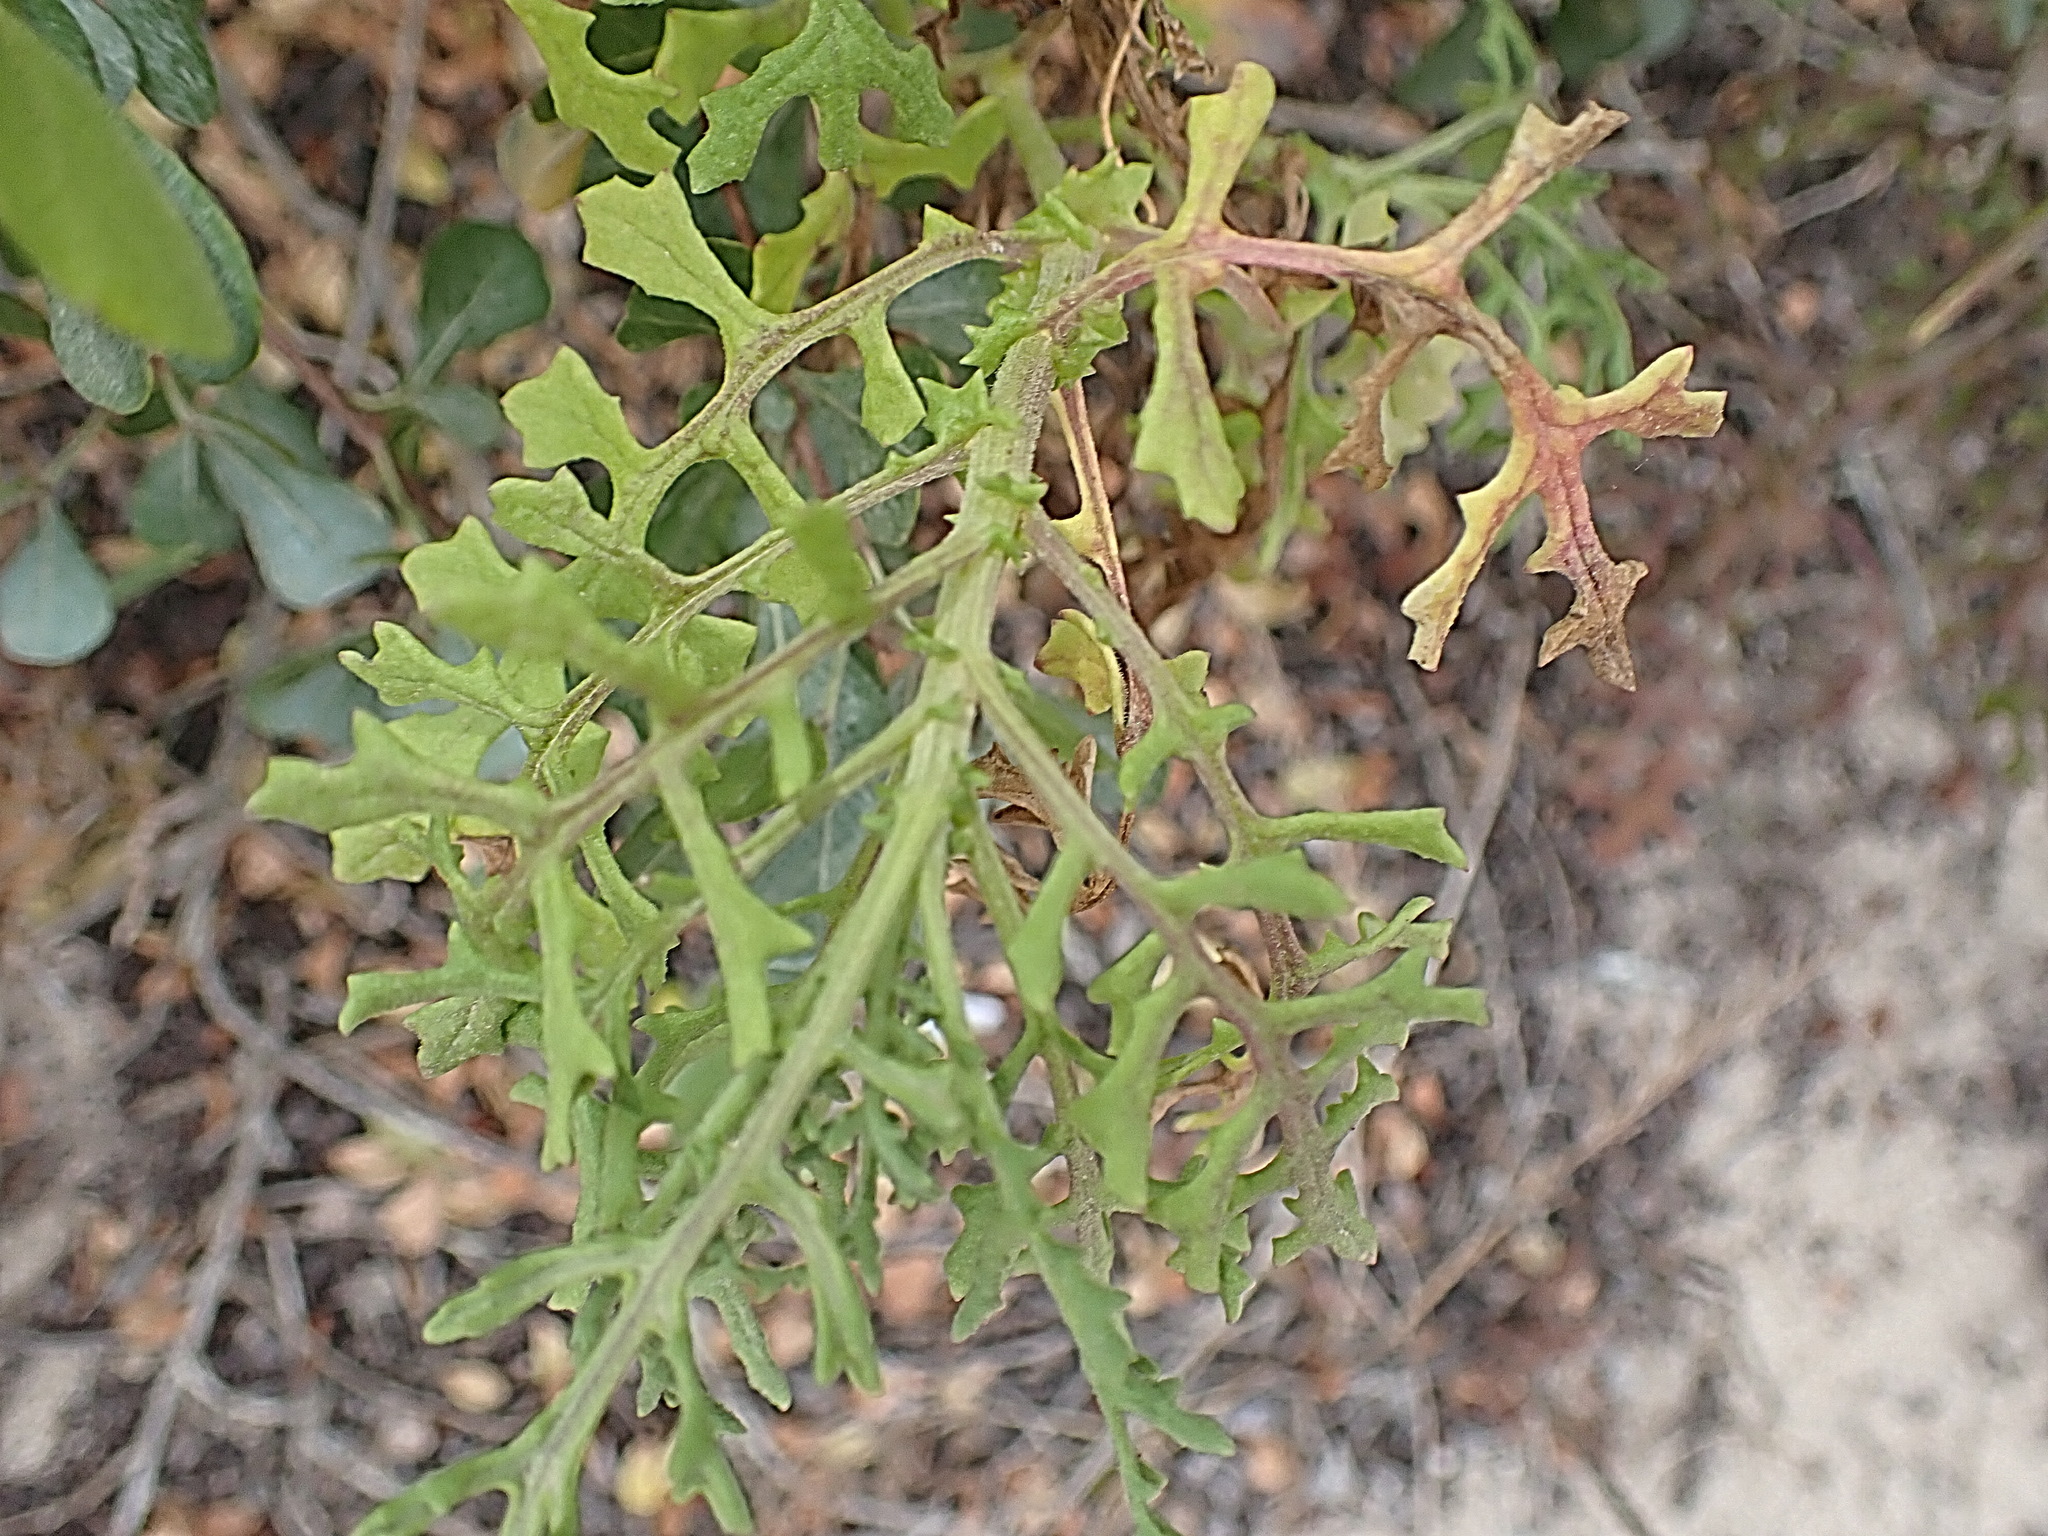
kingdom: Plantae
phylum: Tracheophyta
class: Magnoliopsida
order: Asterales
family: Asteraceae
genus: Senecio
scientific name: Senecio elegans
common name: Purple groundsel
